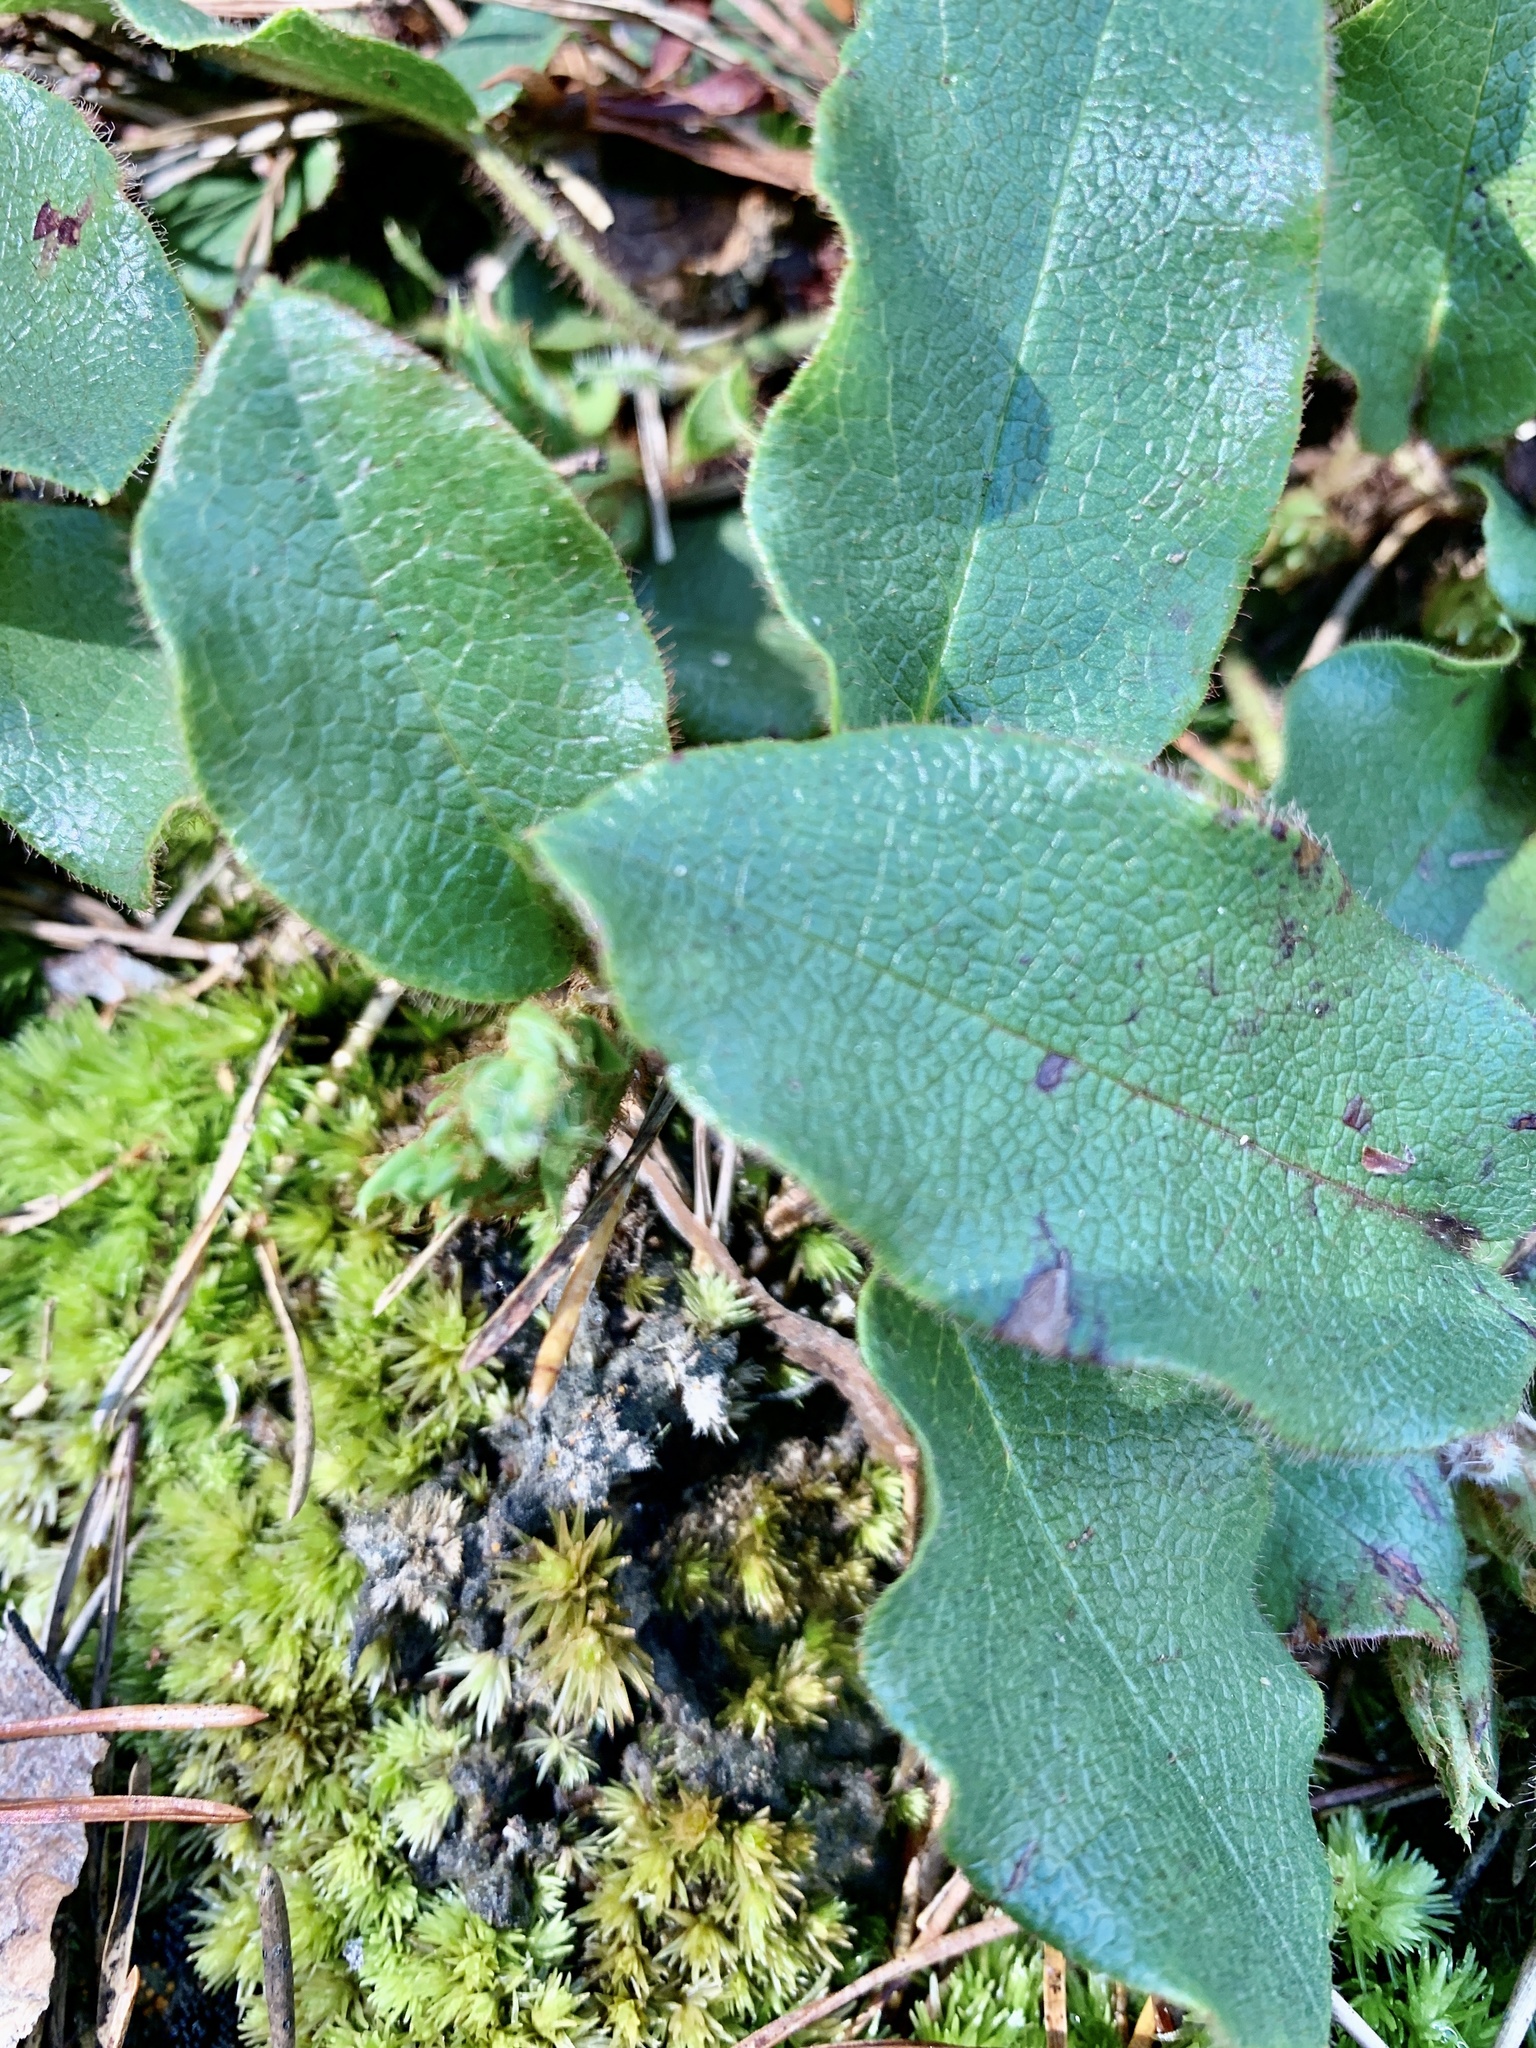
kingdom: Plantae
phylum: Tracheophyta
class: Magnoliopsida
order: Ericales
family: Ericaceae
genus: Epigaea
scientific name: Epigaea repens
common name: Gravelroot
